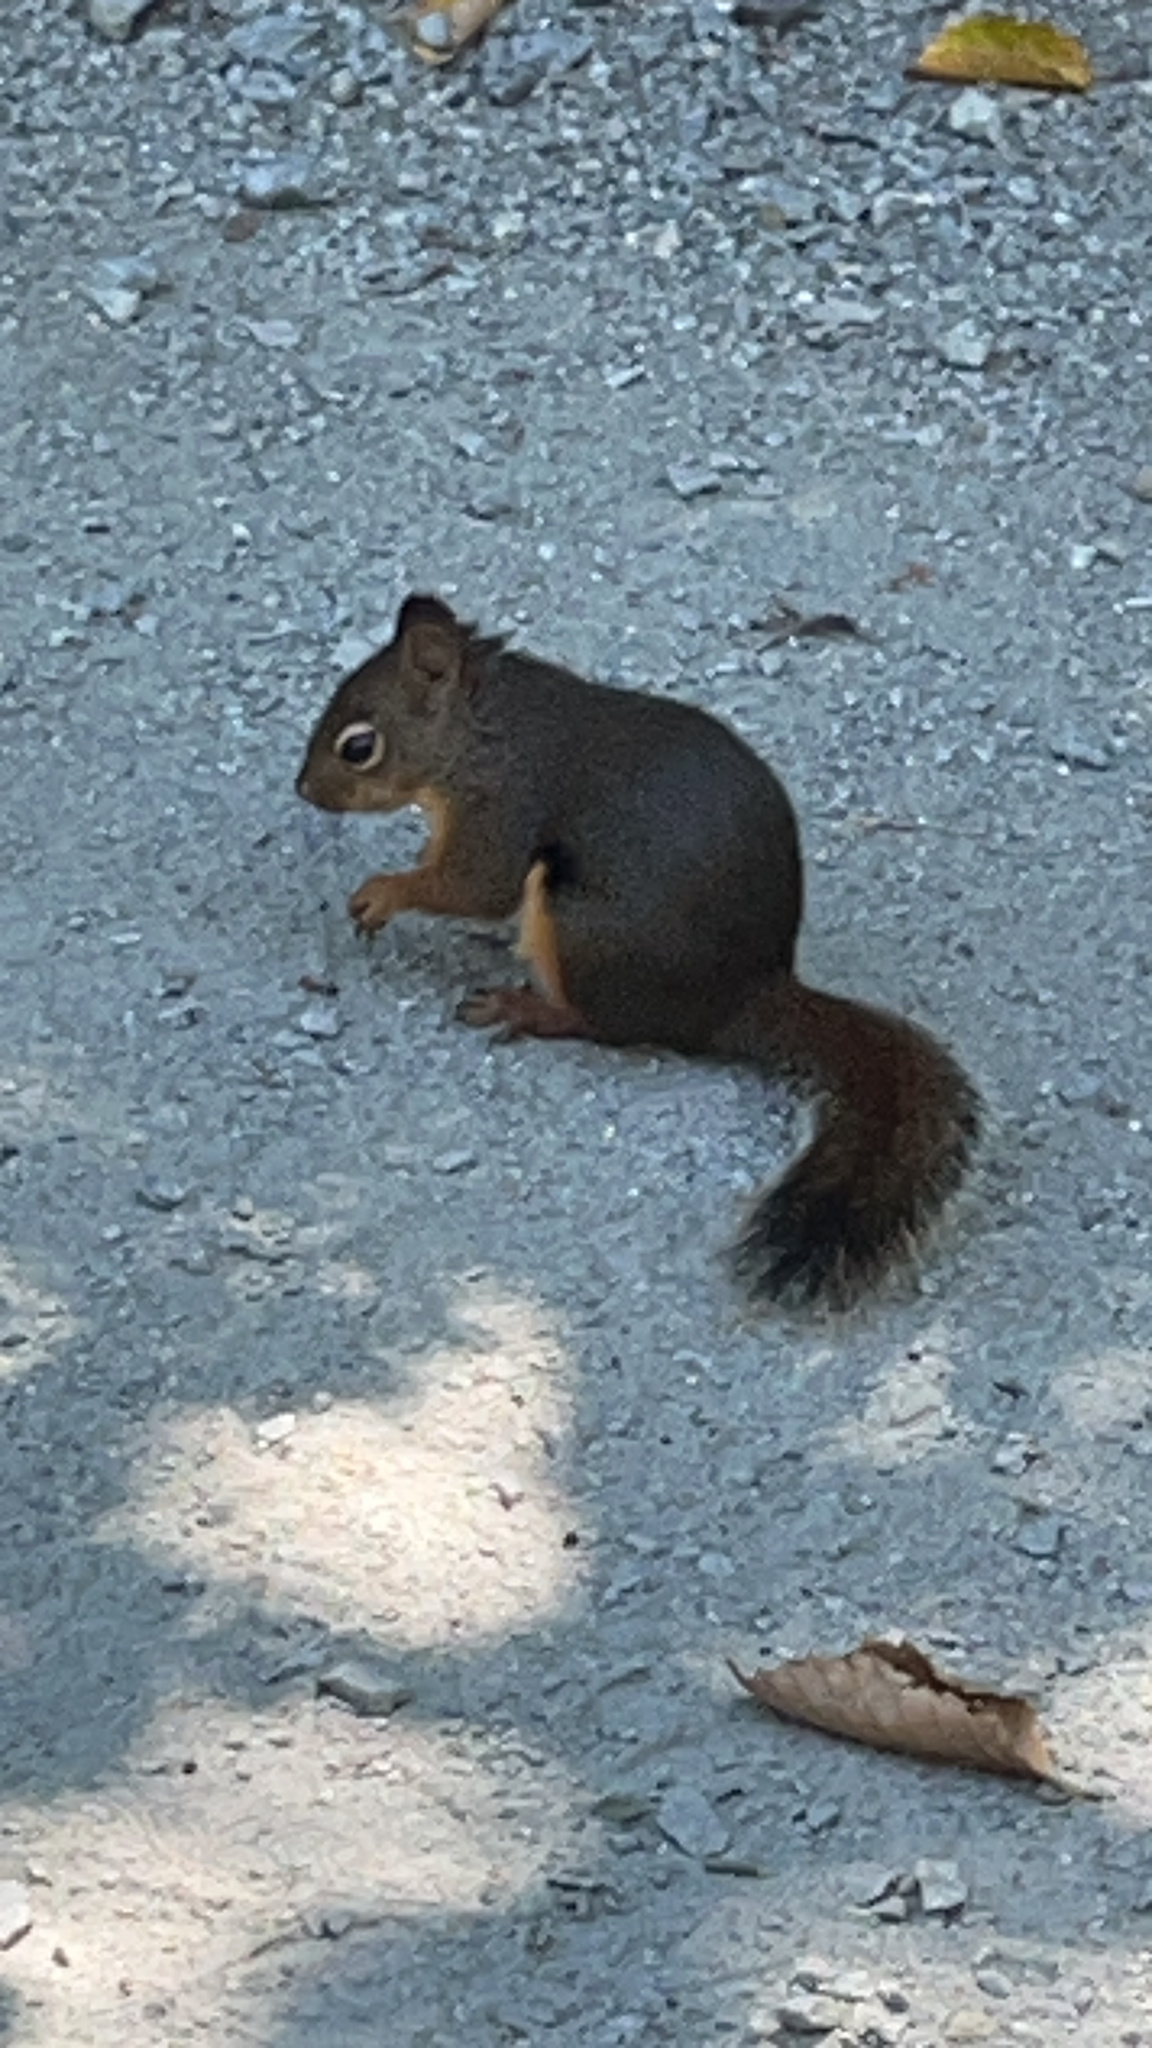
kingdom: Animalia
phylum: Chordata
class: Mammalia
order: Rodentia
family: Sciuridae
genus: Tamiasciurus
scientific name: Tamiasciurus douglasii
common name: Douglas's squirrel
